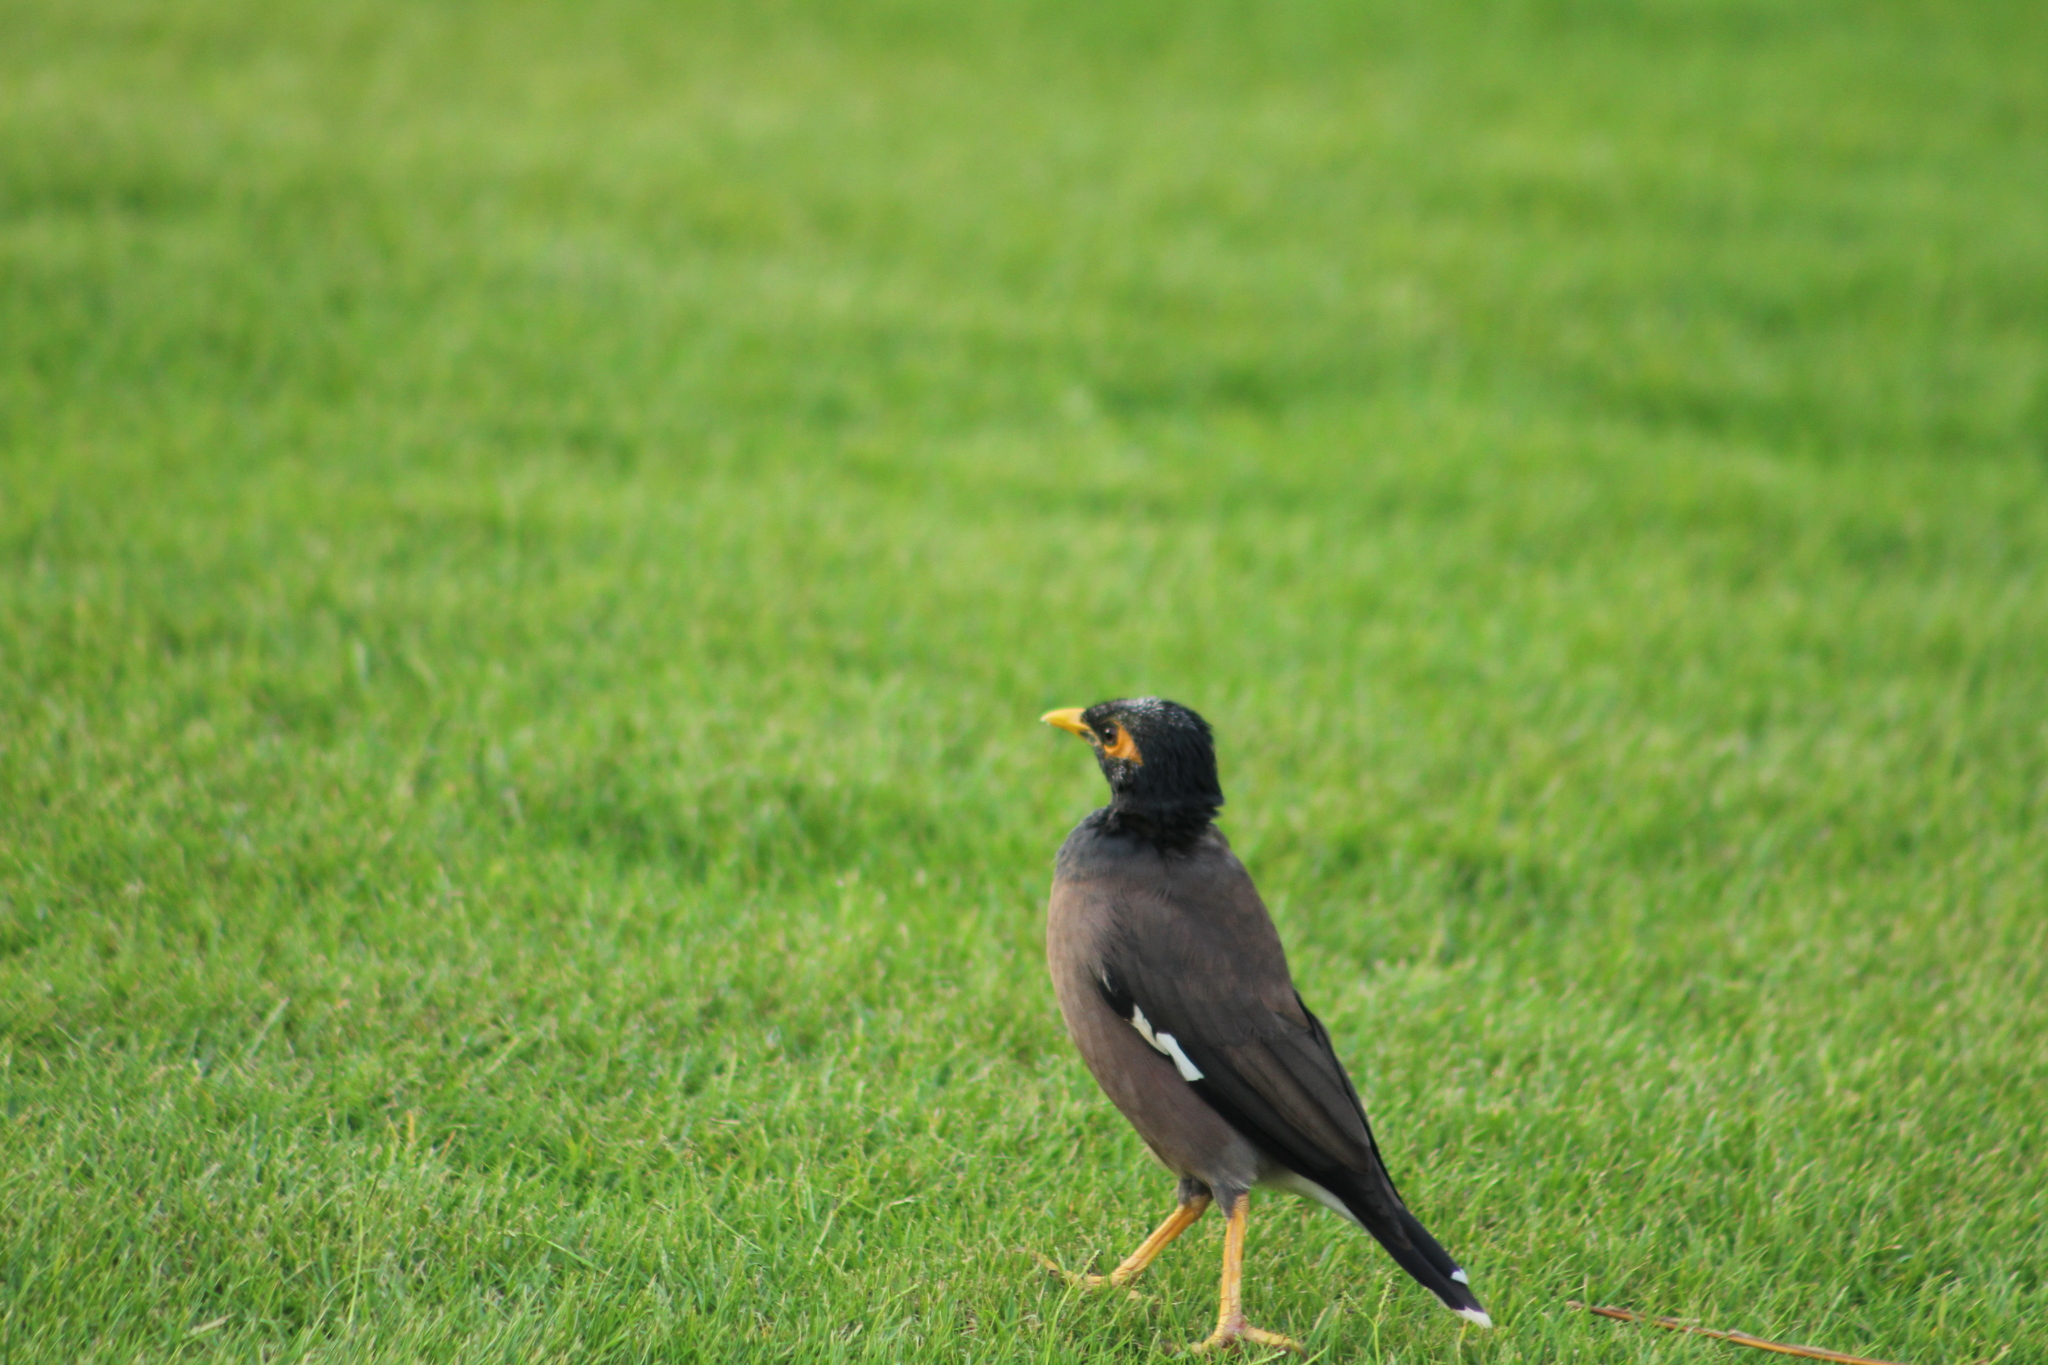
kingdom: Animalia
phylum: Chordata
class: Aves
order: Passeriformes
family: Sturnidae
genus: Acridotheres
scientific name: Acridotheres tristis
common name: Common myna
